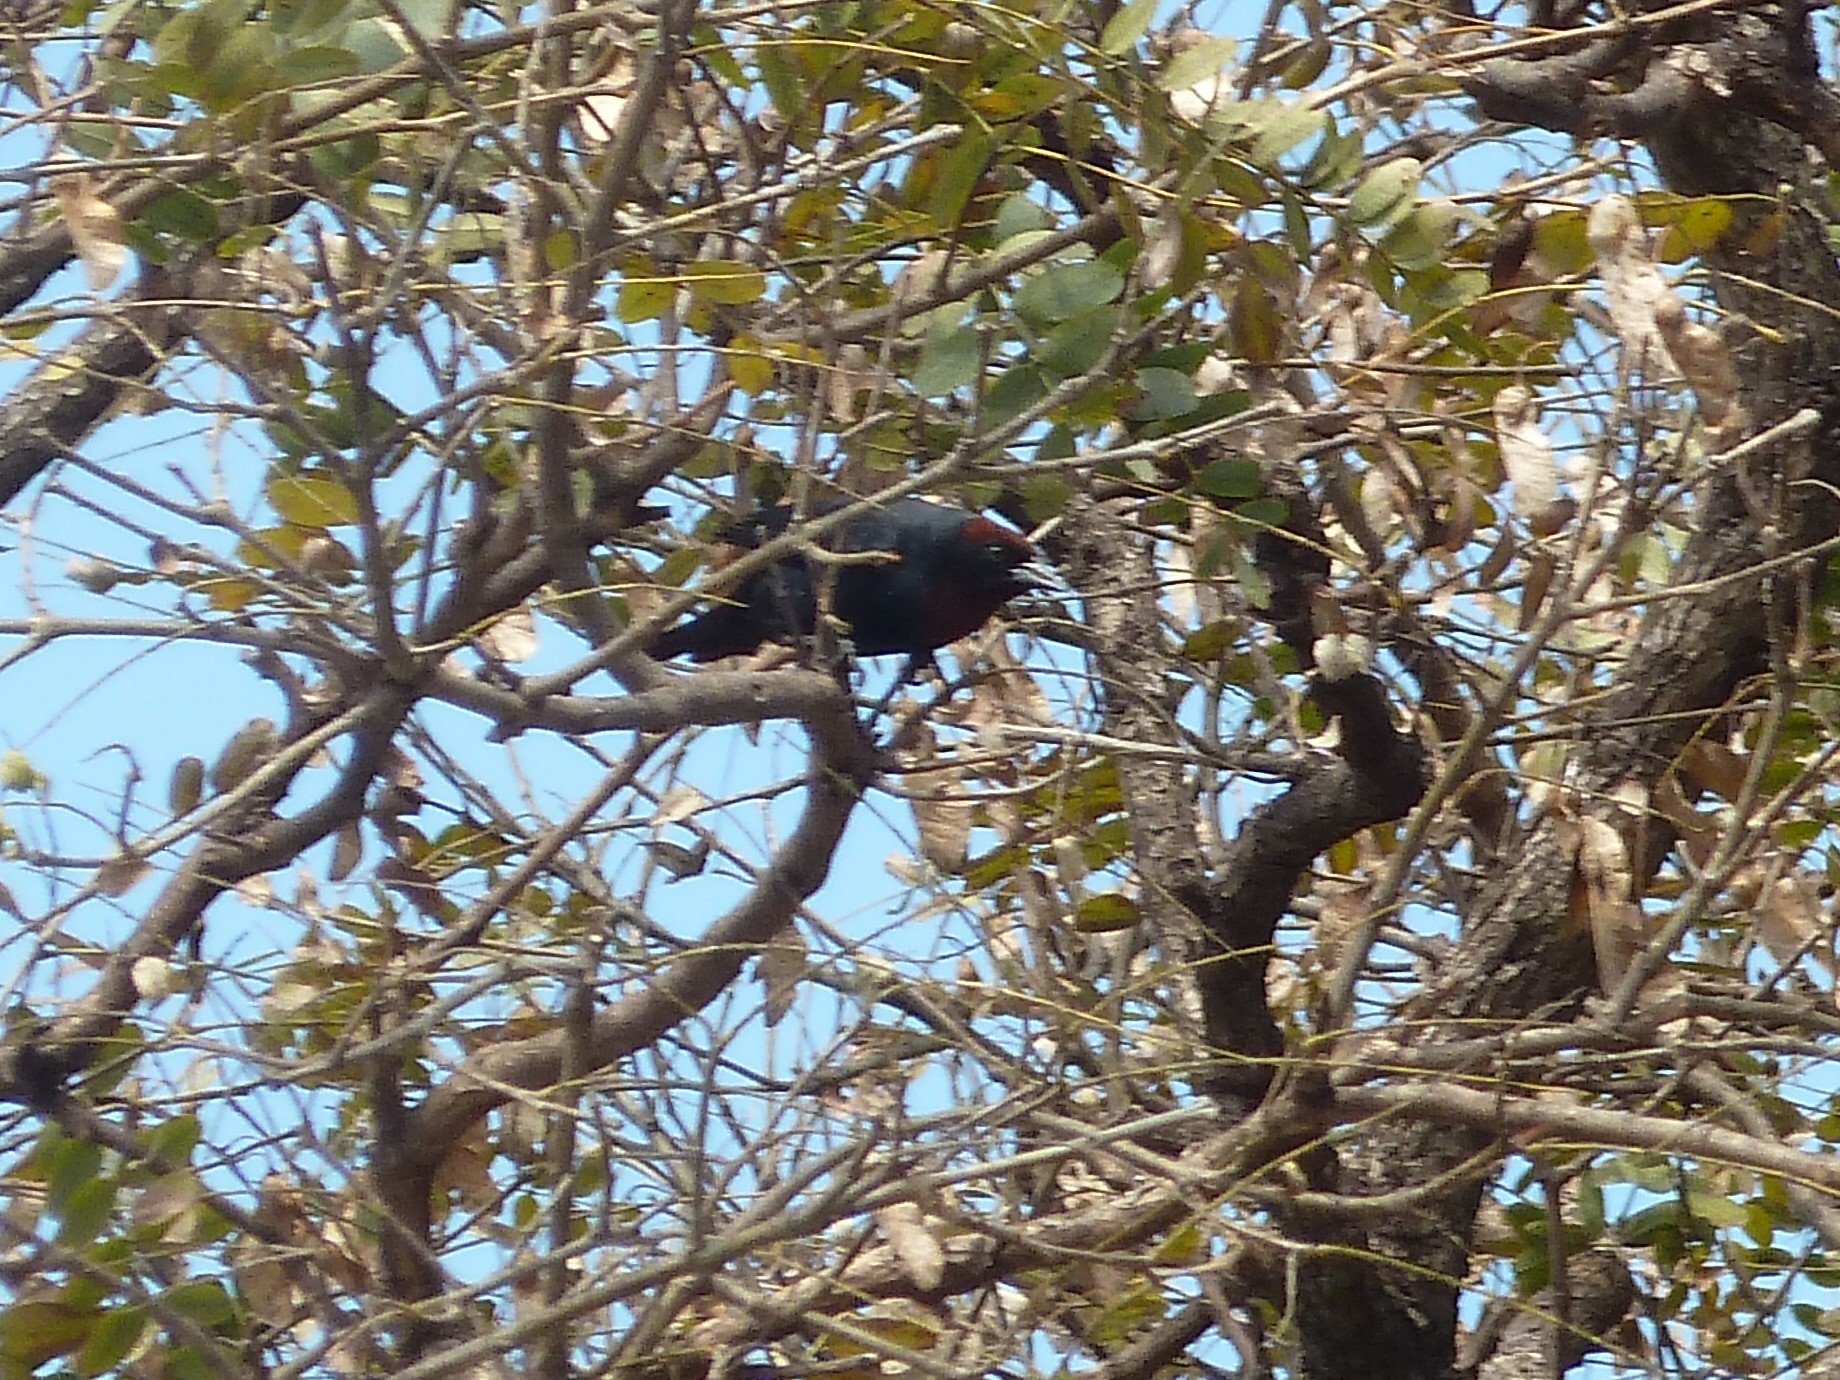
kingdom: Animalia
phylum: Chordata
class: Aves
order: Passeriformes
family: Icteridae
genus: Chrysomus
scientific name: Chrysomus ruficapillus
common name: Chestnut-capped blackbird
